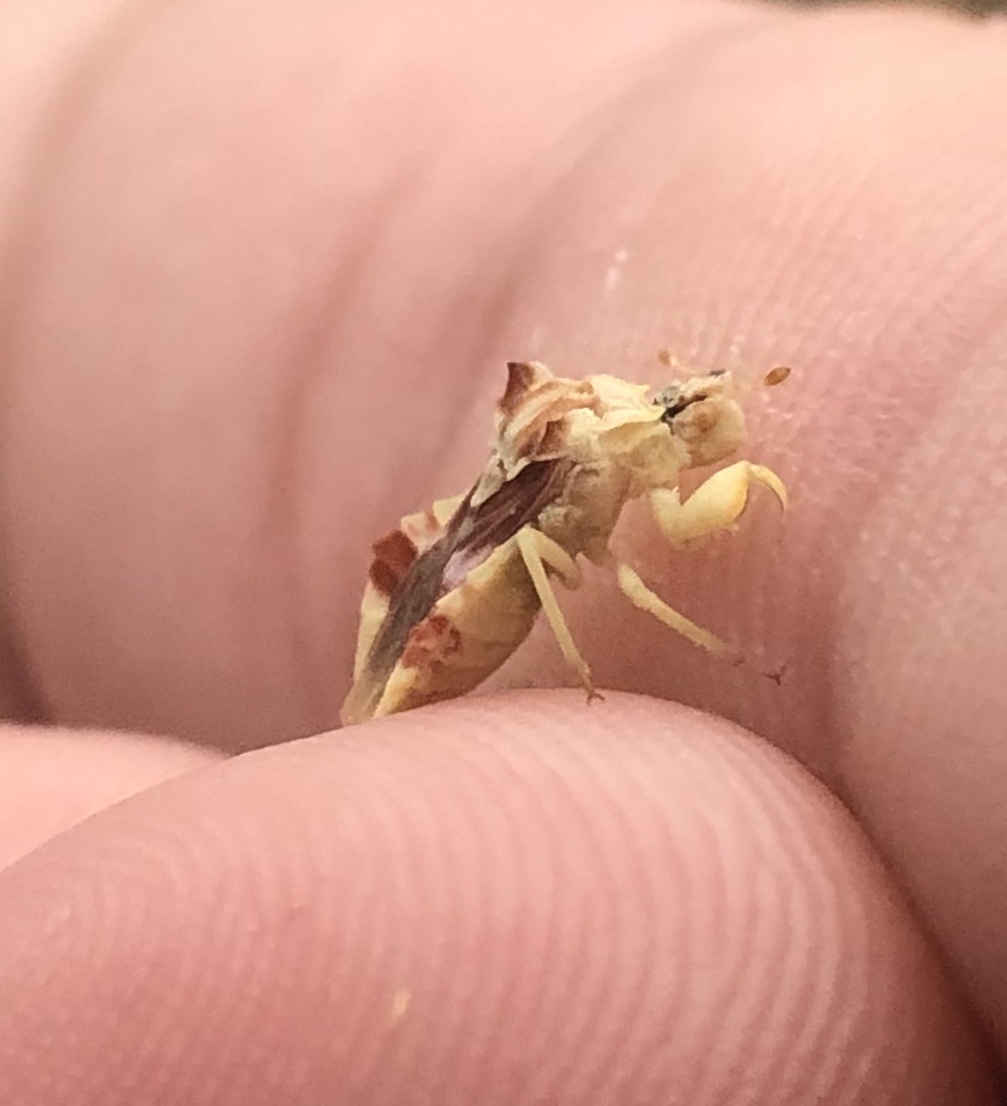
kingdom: Animalia
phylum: Arthropoda
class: Insecta
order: Hemiptera
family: Reduviidae
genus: Phymata
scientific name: Phymata pacifica
